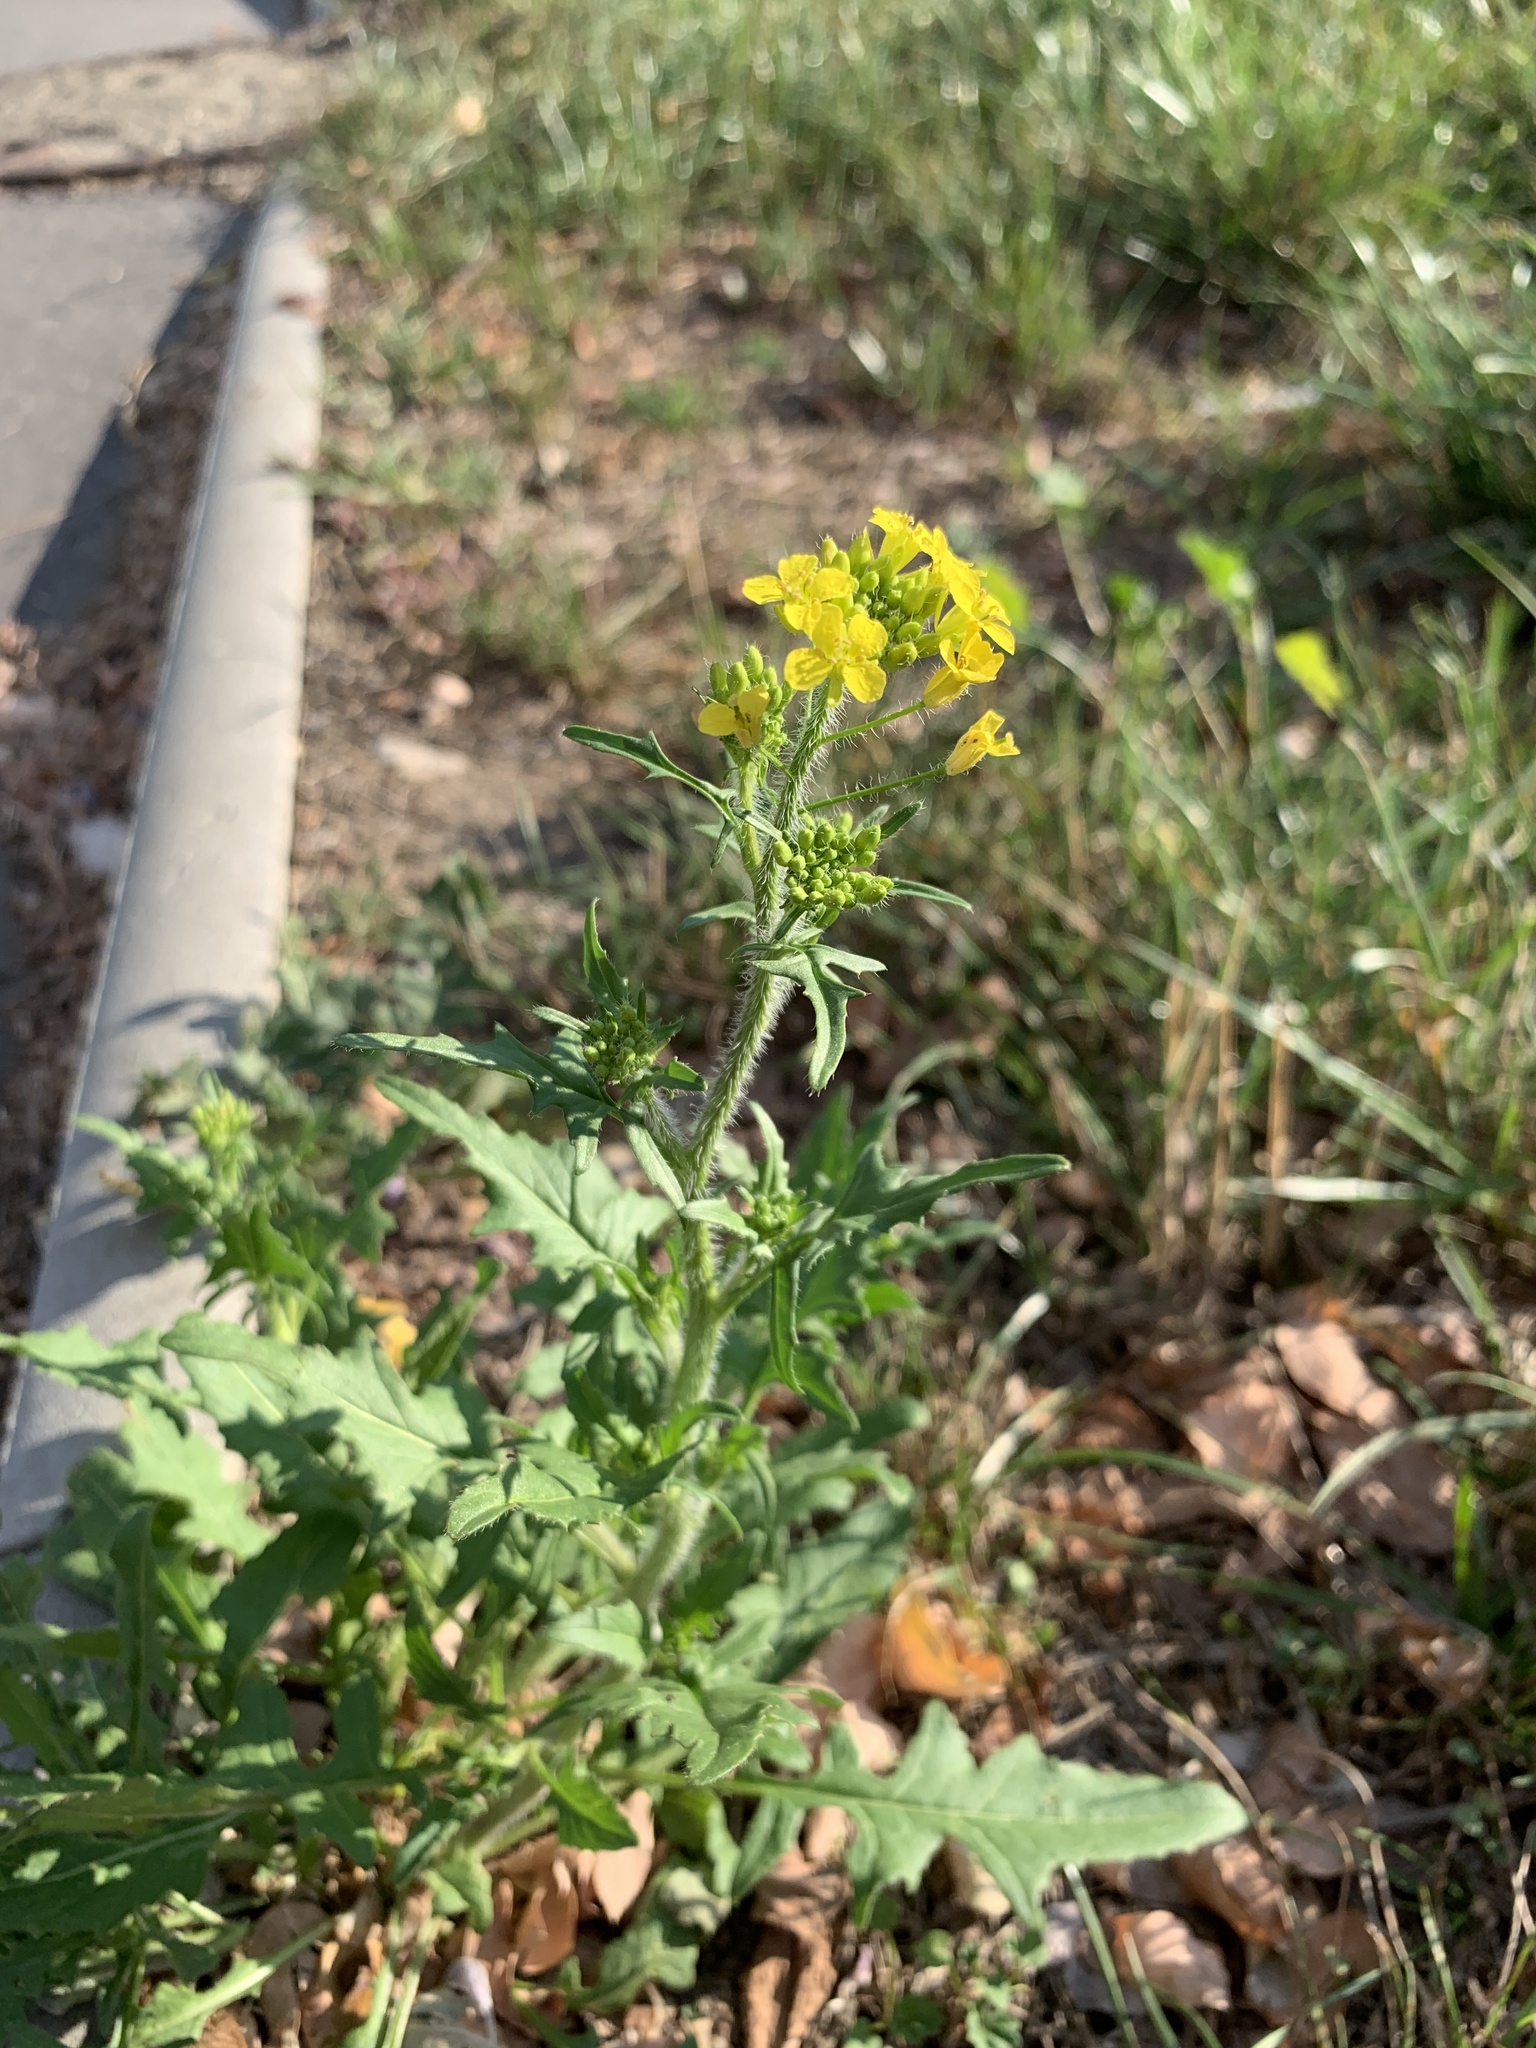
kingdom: Plantae
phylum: Tracheophyta
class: Magnoliopsida
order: Brassicales
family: Brassicaceae
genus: Sisymbrium
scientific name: Sisymbrium loeselii
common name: False london-rocket
